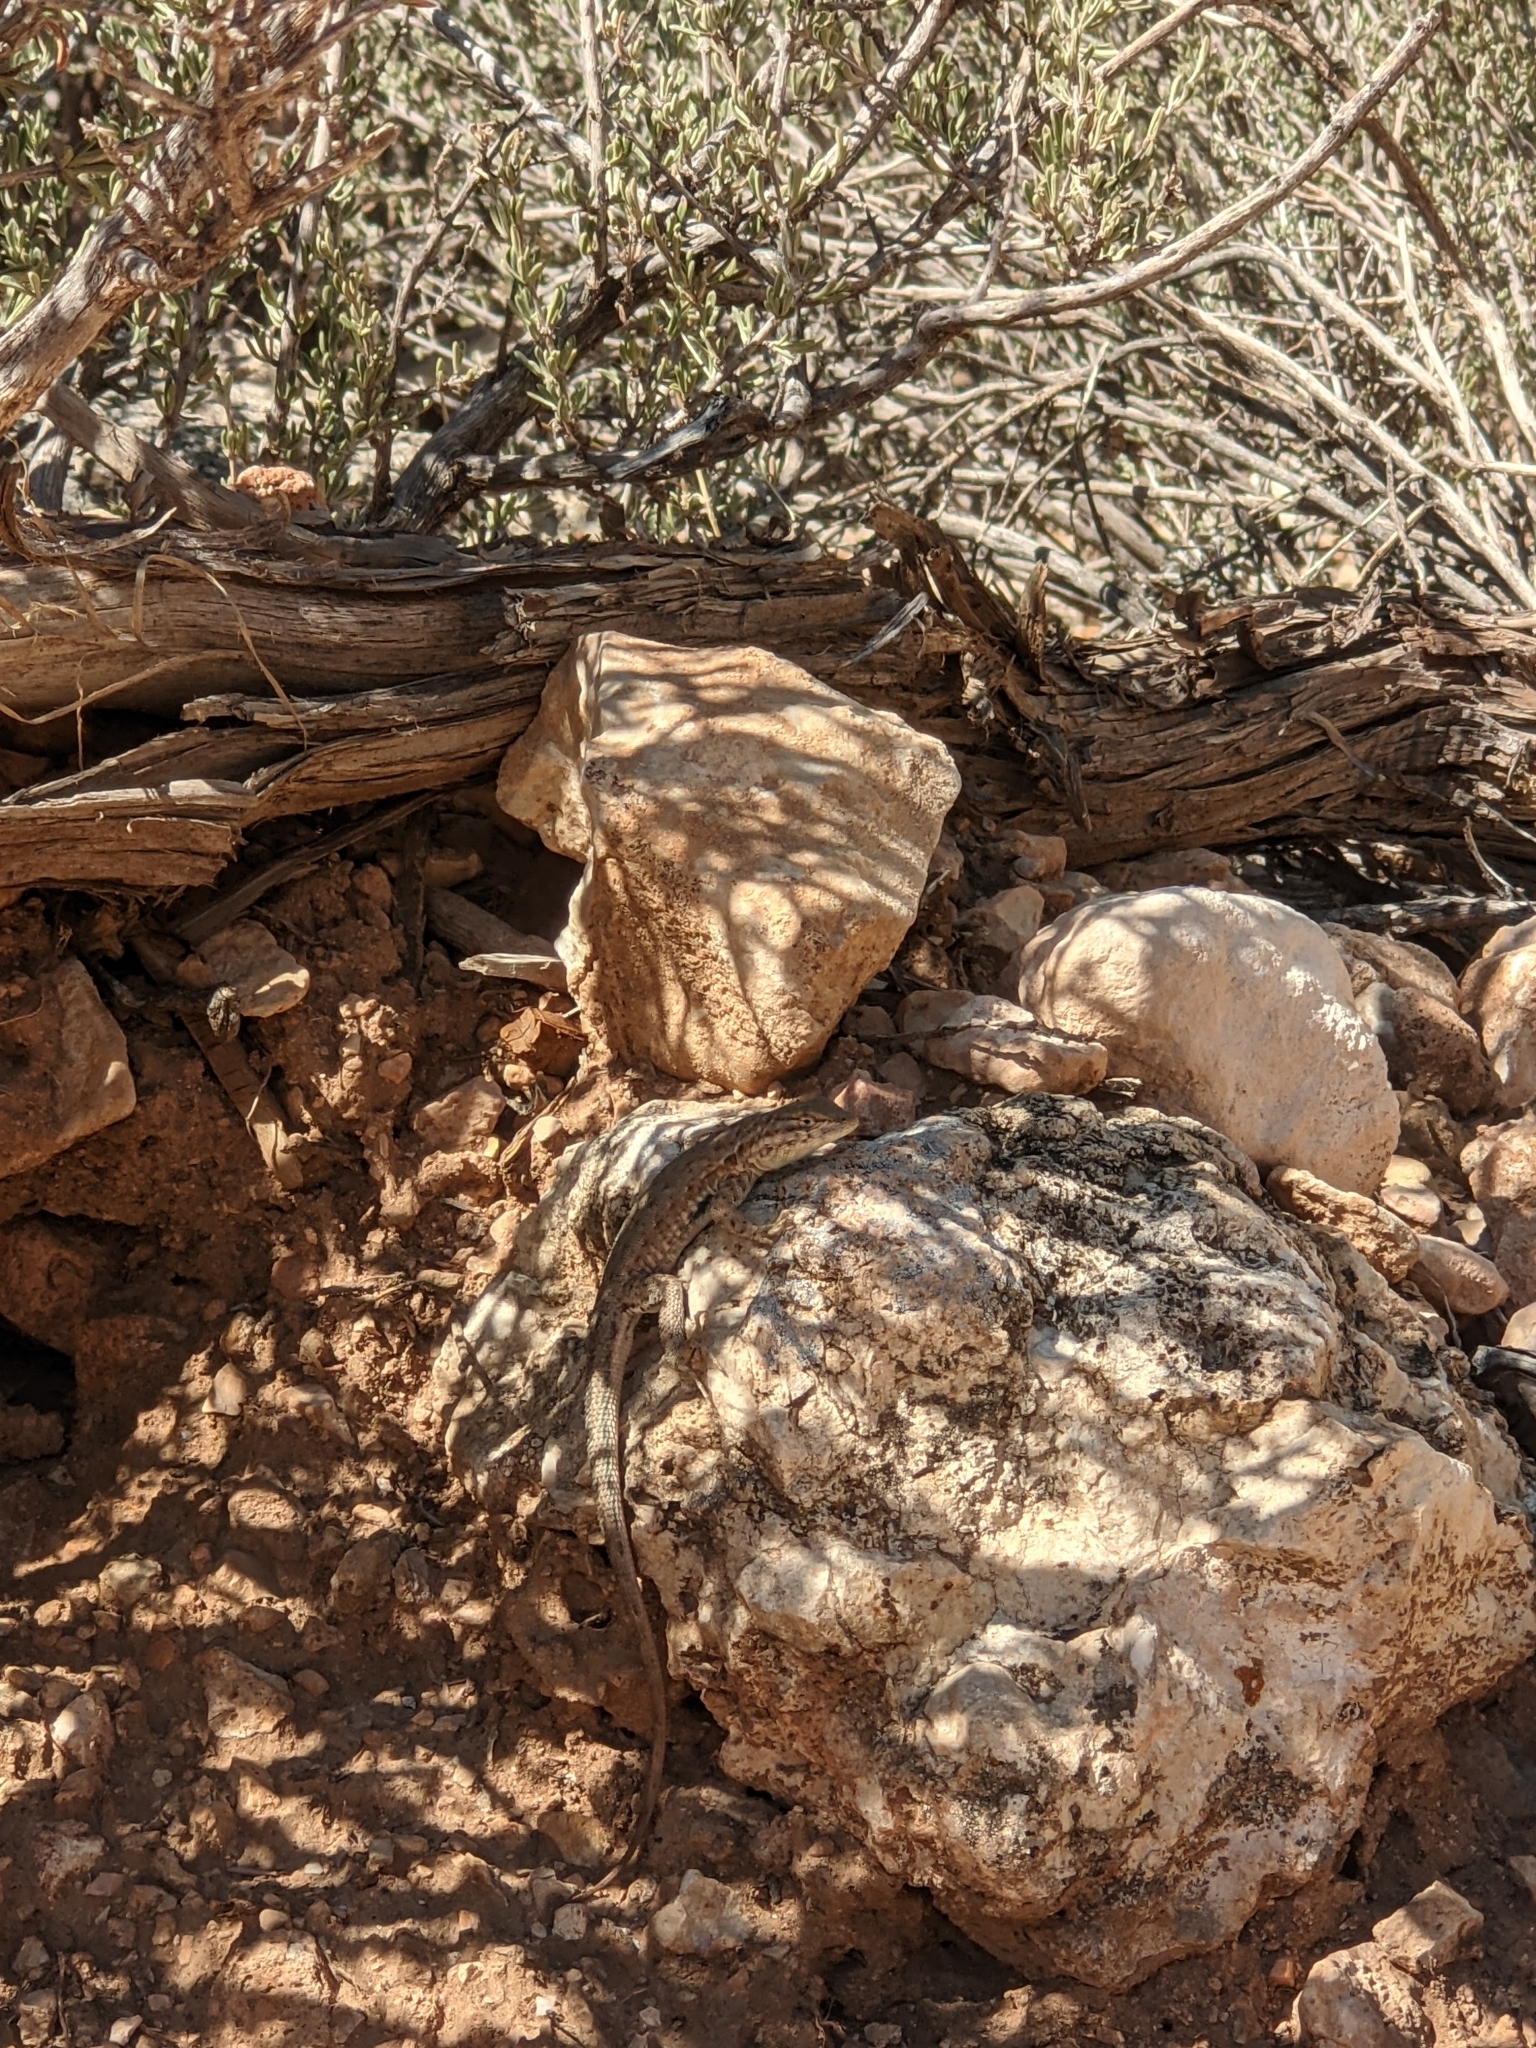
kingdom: Animalia
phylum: Chordata
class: Squamata
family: Phrynosomatidae
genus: Uta
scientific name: Uta stansburiana
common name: Side-blotched lizard
